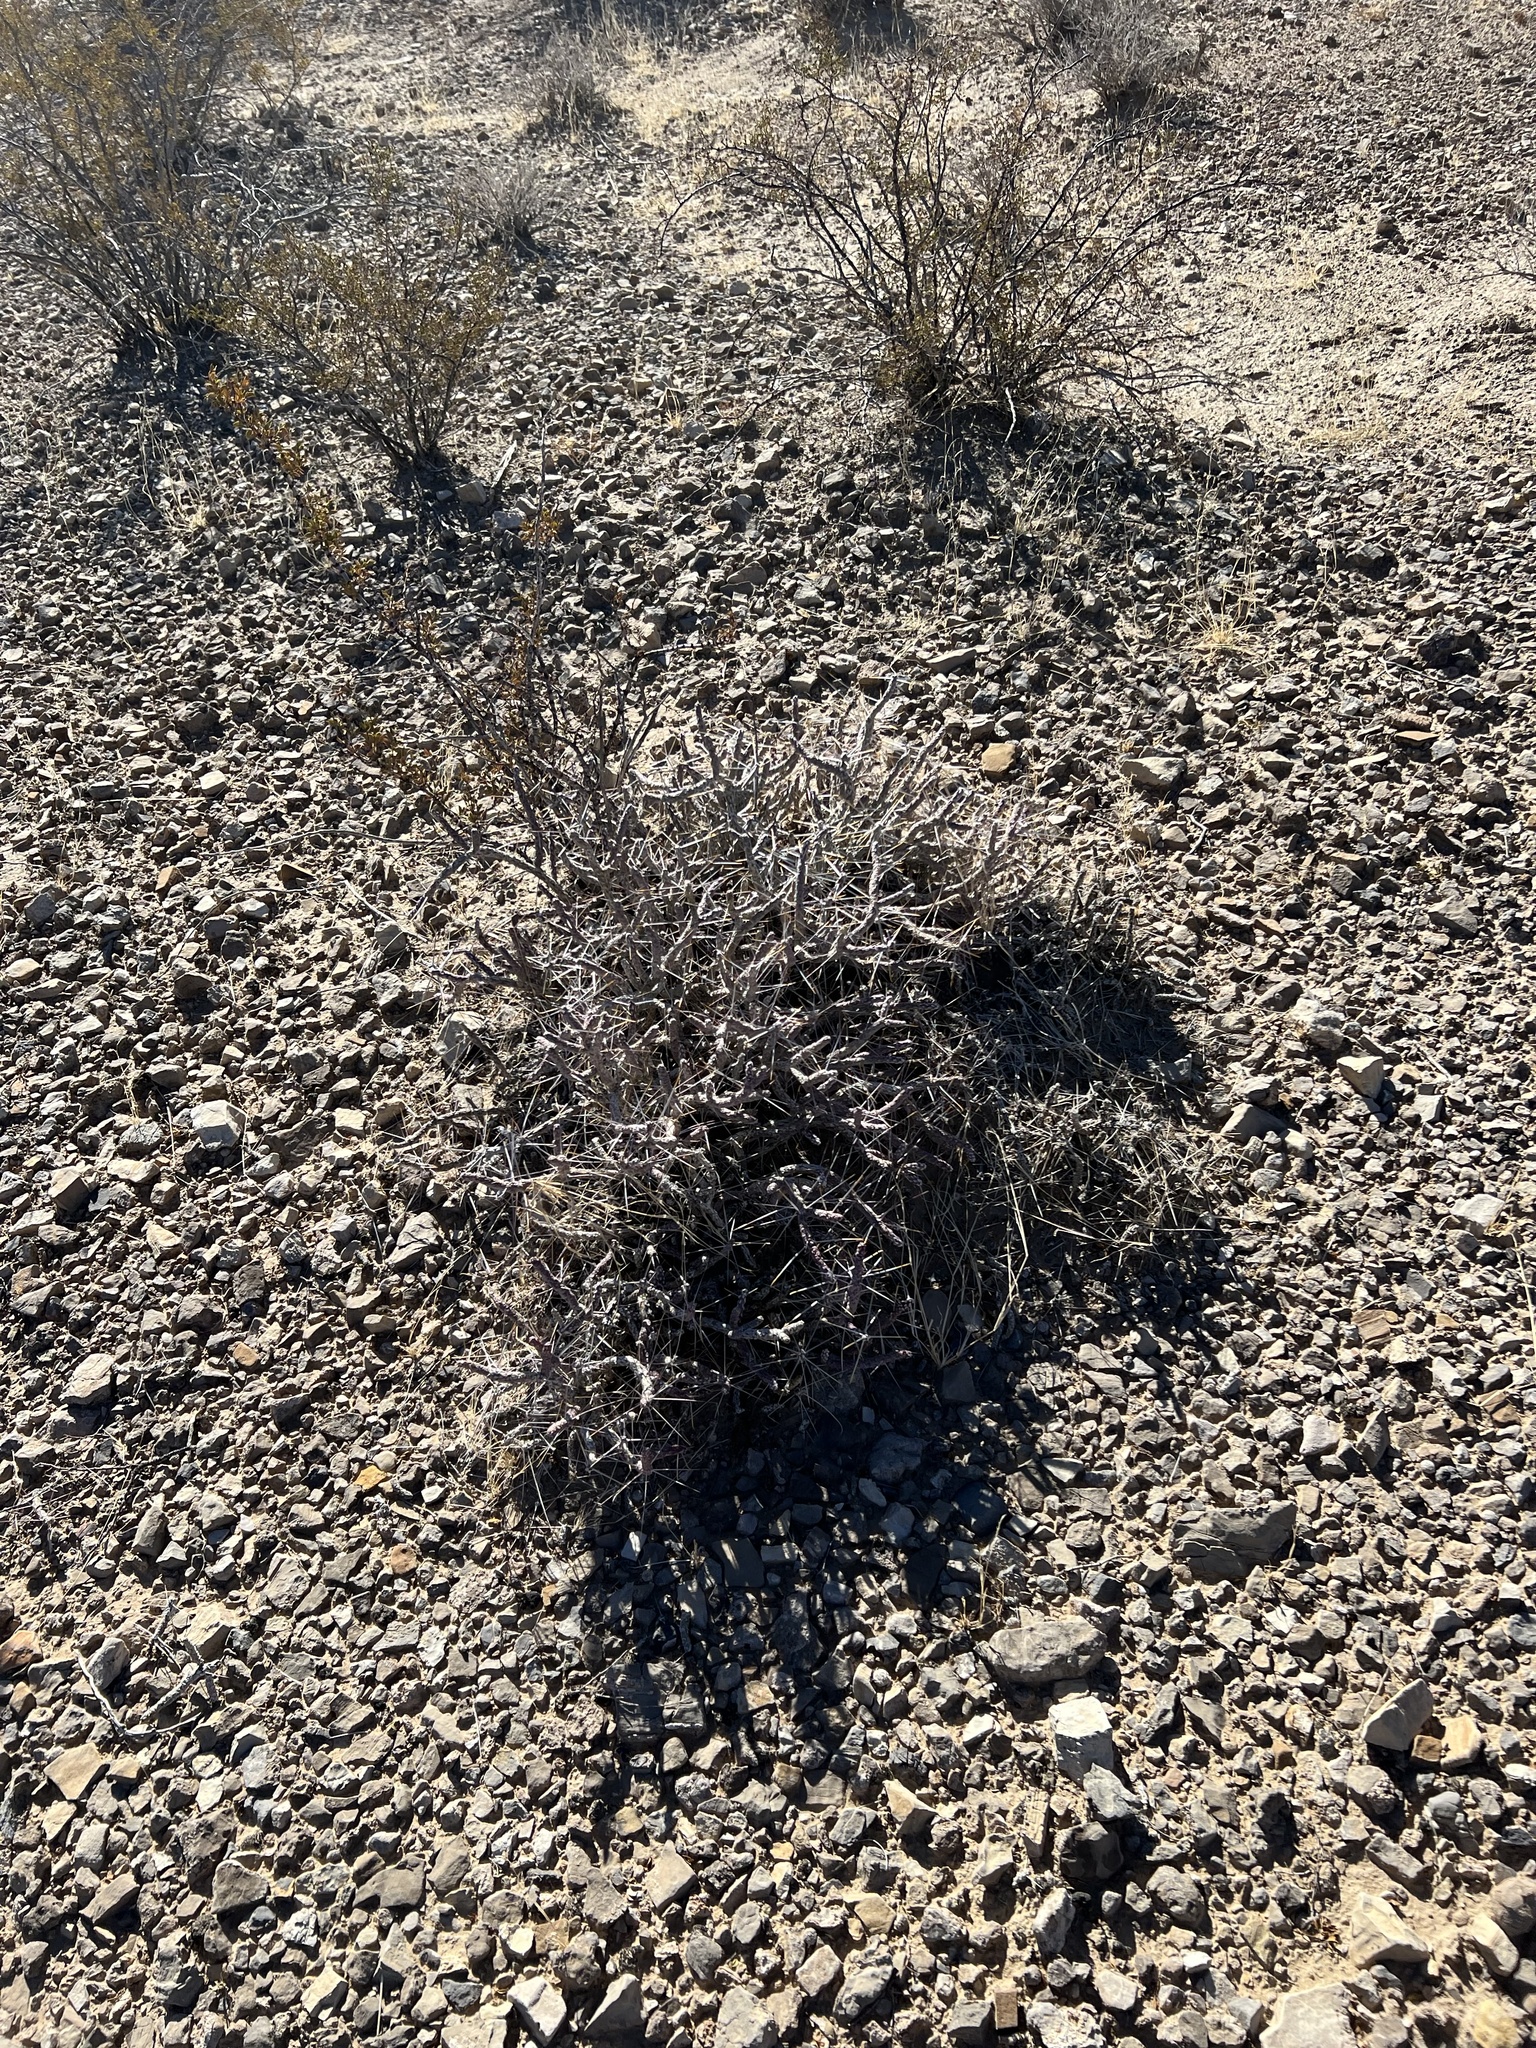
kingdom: Plantae
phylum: Tracheophyta
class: Magnoliopsida
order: Caryophyllales
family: Cactaceae
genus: Cylindropuntia
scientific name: Cylindropuntia ramosissima
